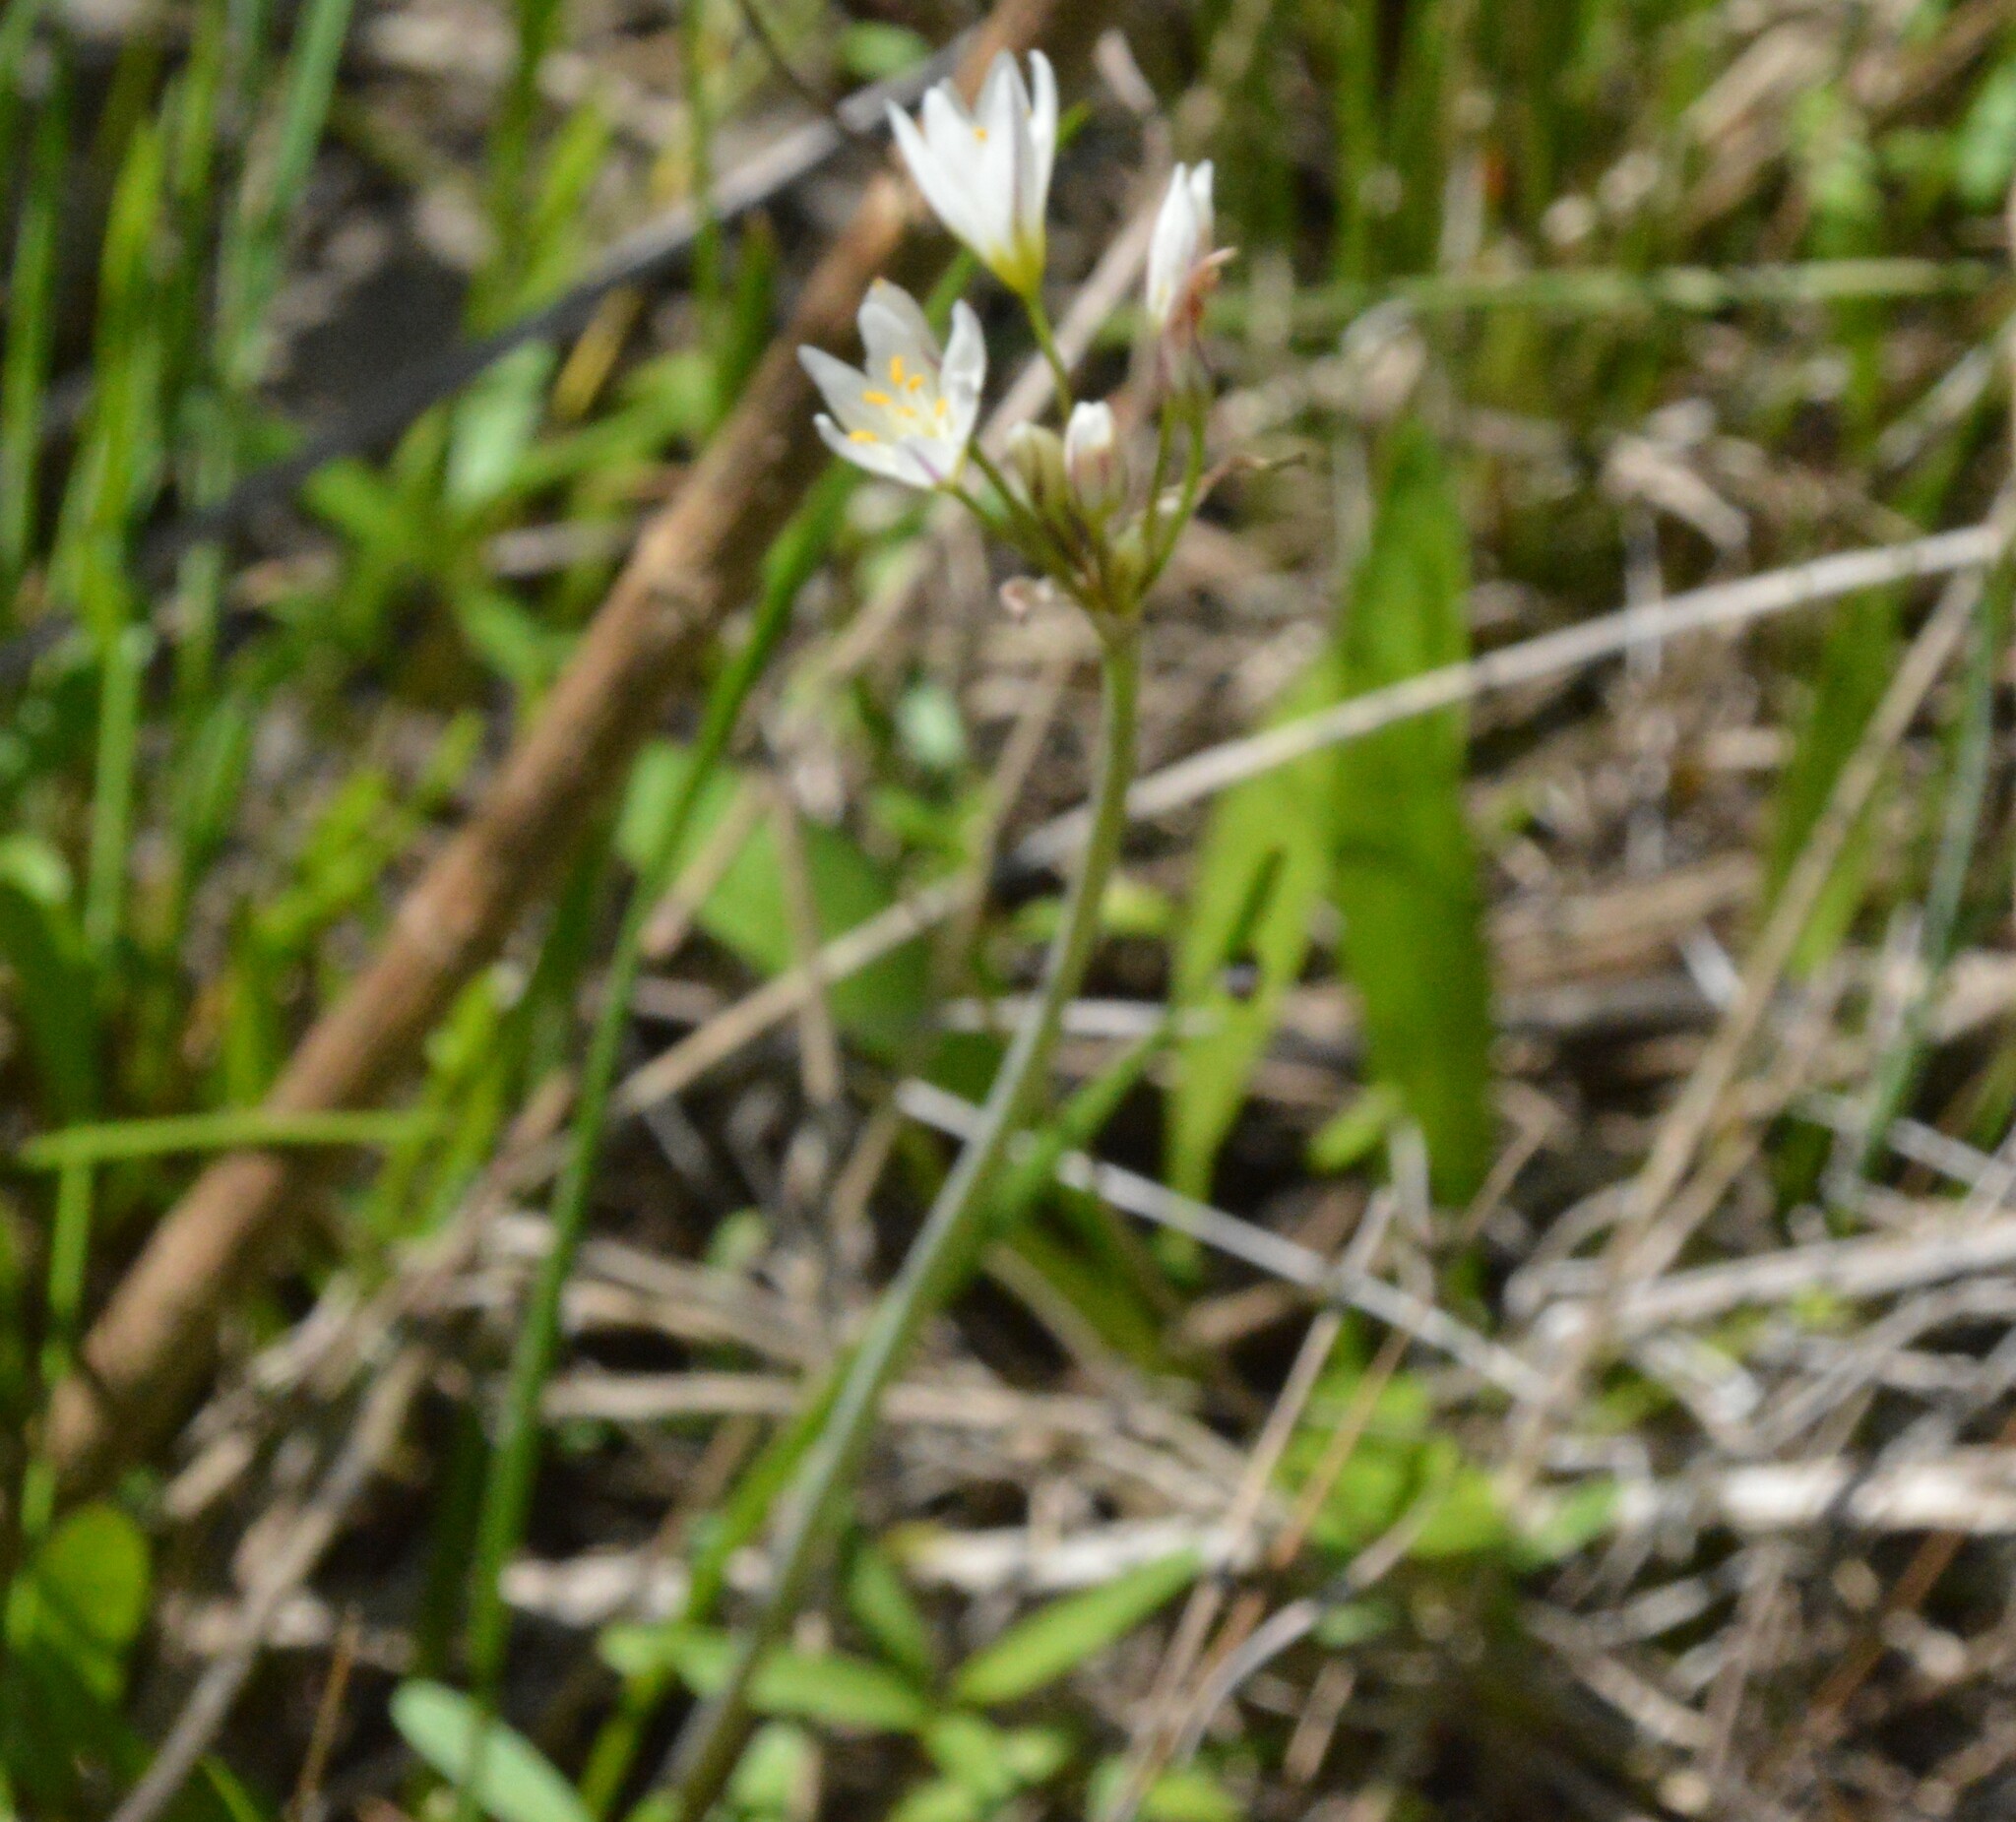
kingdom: Plantae
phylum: Tracheophyta
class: Liliopsida
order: Asparagales
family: Amaryllidaceae
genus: Nothoscordum
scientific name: Nothoscordum bivalve
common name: Crow-poison
